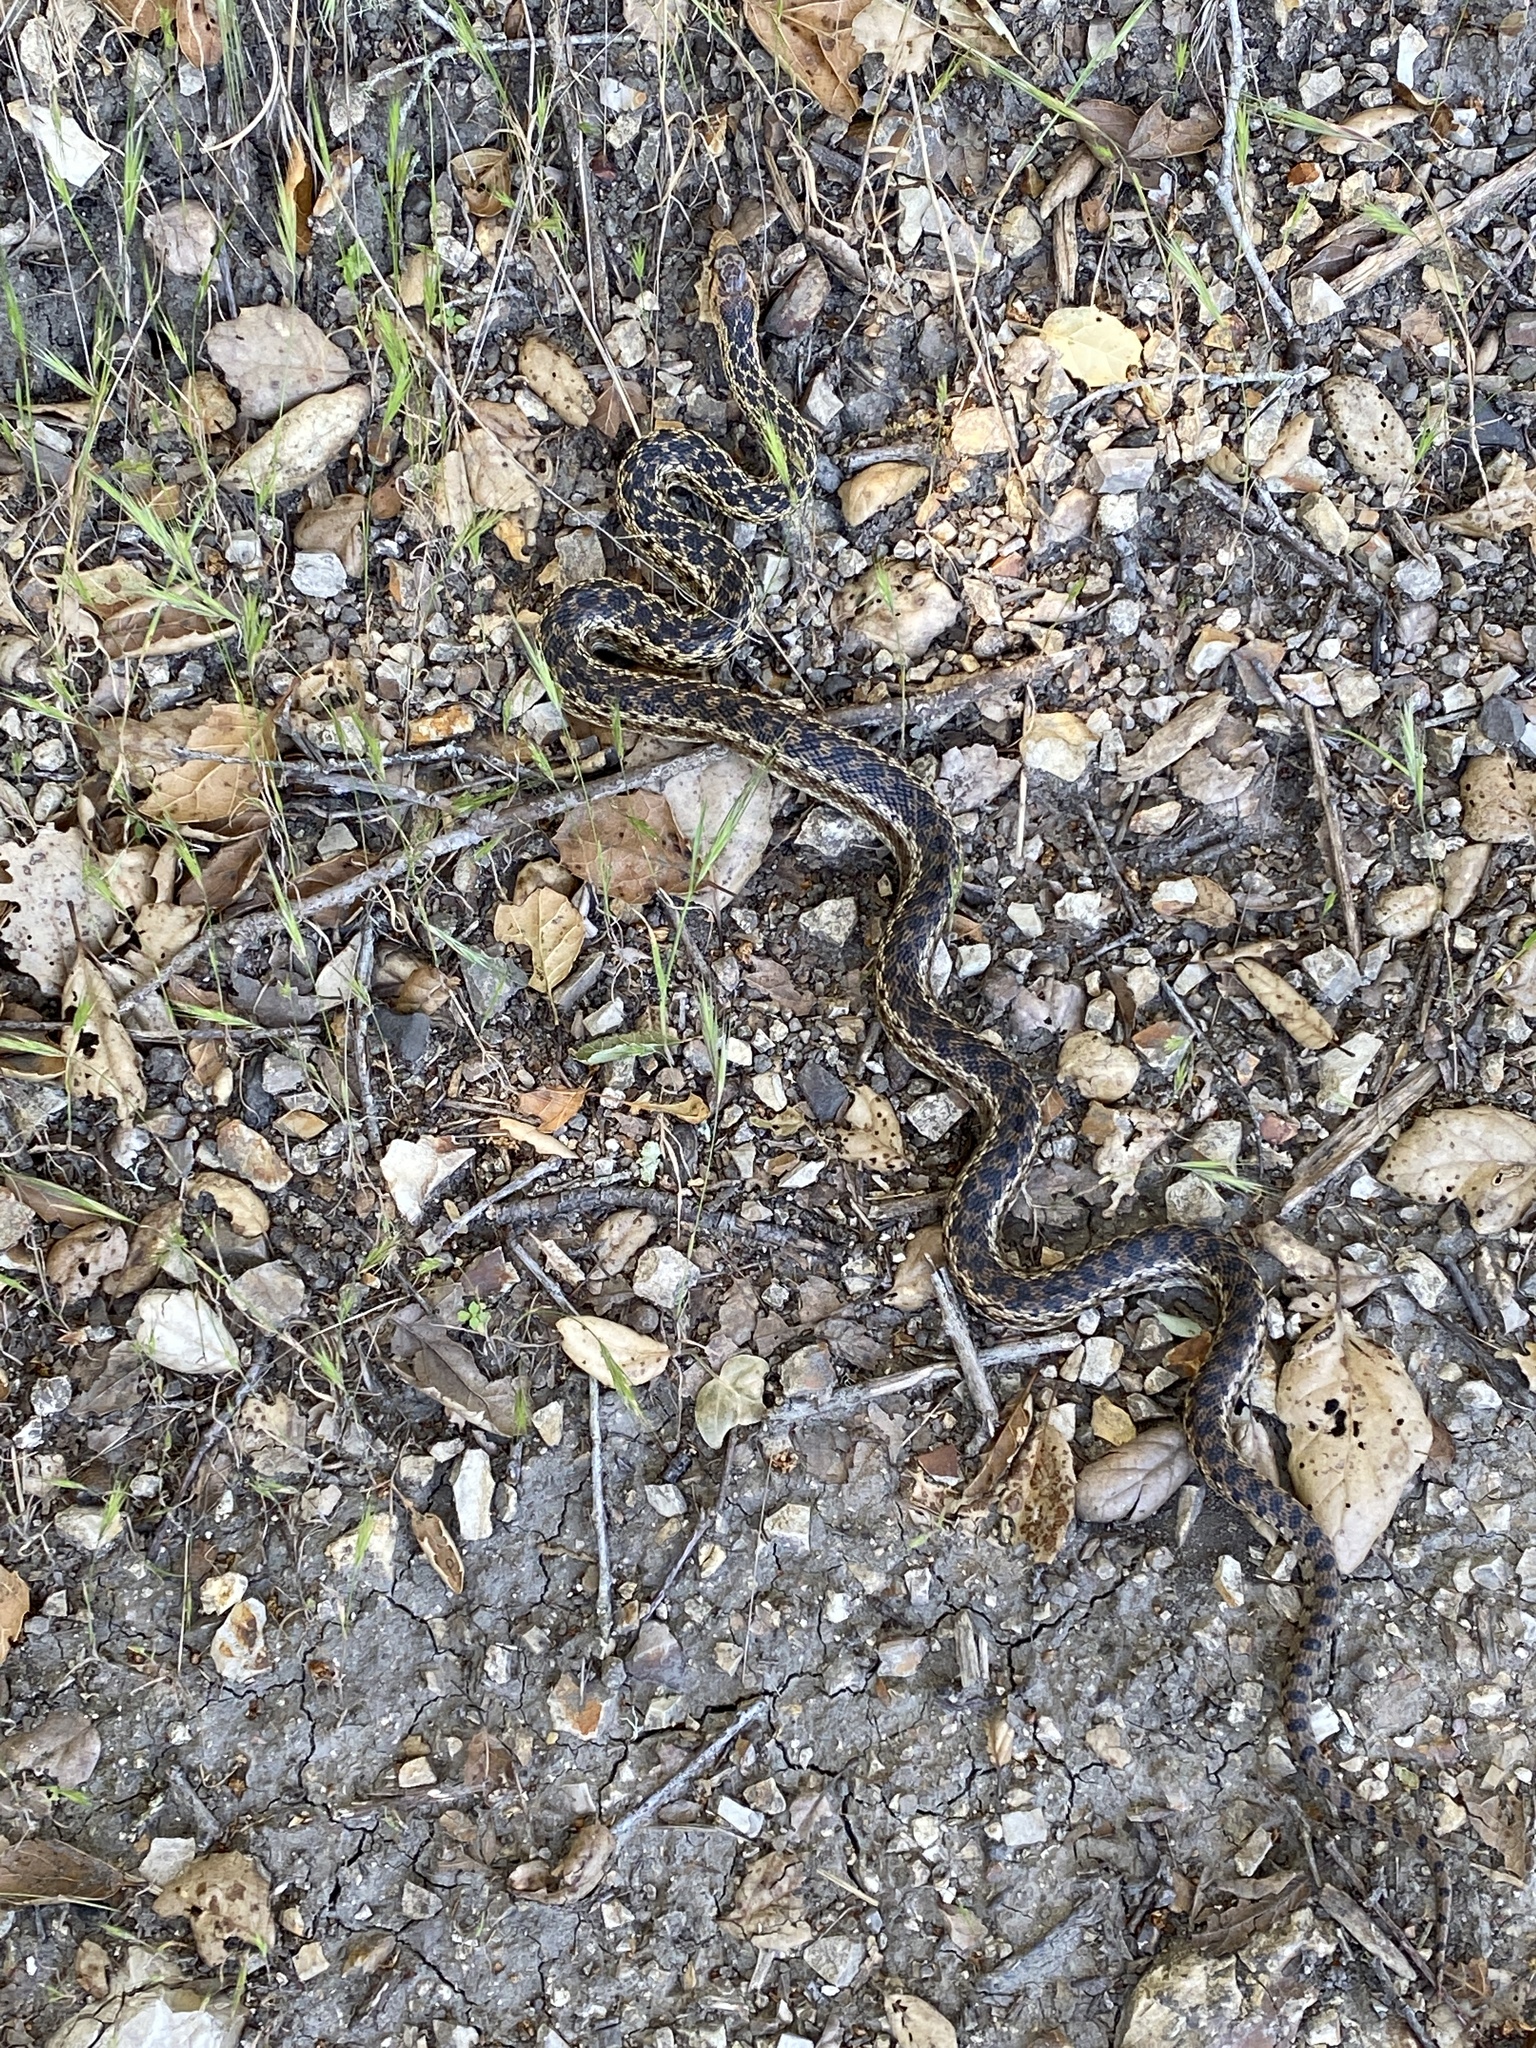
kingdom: Animalia
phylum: Chordata
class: Squamata
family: Colubridae
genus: Pituophis
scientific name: Pituophis catenifer
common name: Gopher snake
